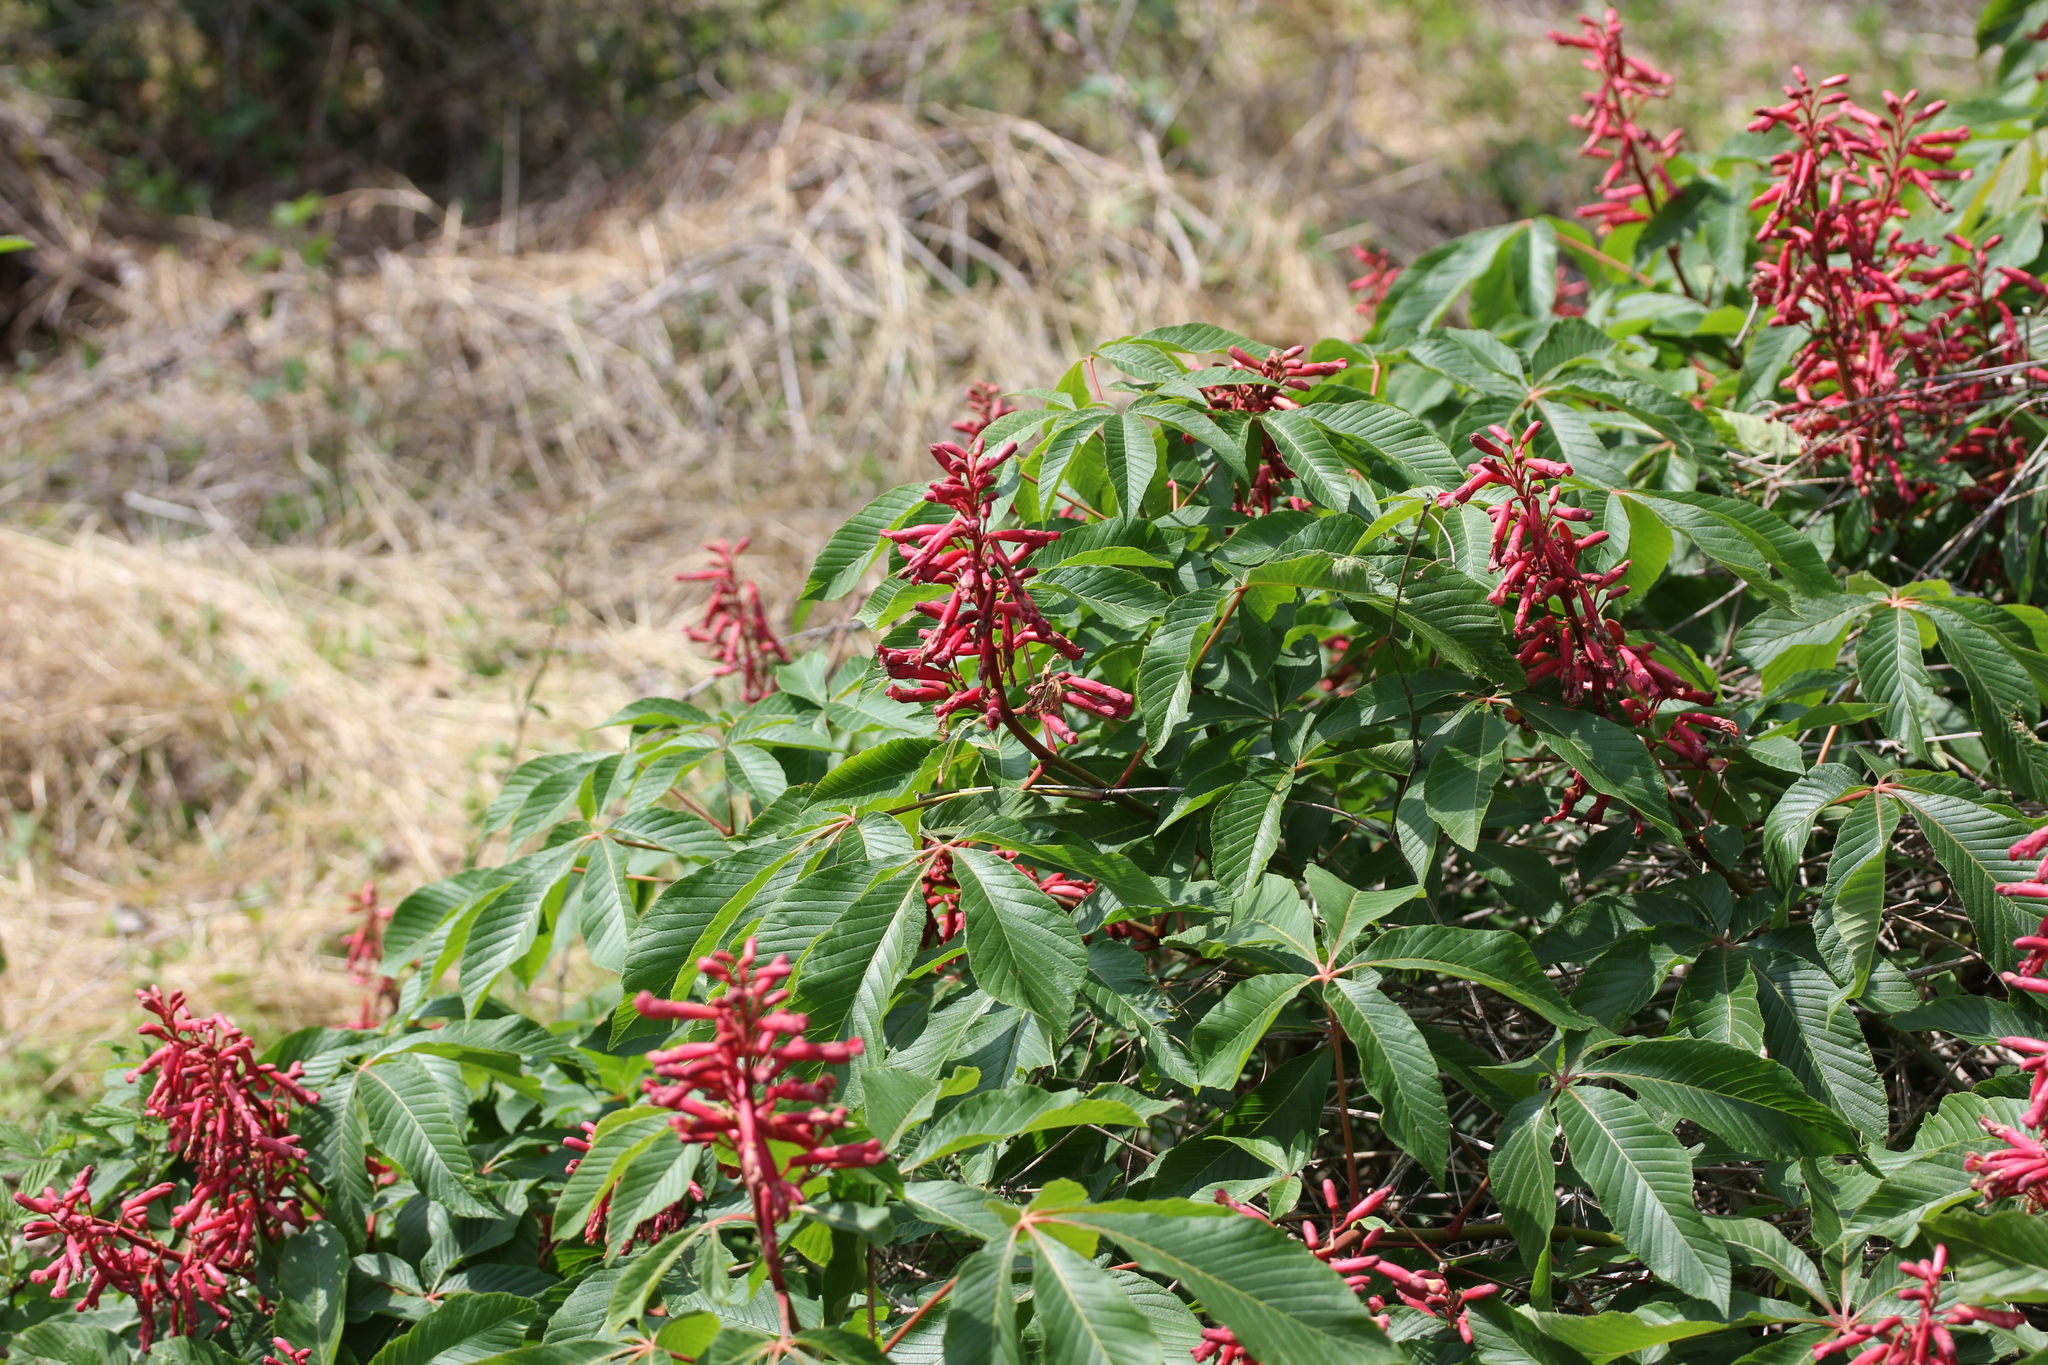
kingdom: Plantae
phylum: Tracheophyta
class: Magnoliopsida
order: Sapindales
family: Sapindaceae
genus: Aesculus
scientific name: Aesculus pavia
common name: Red buckeye
